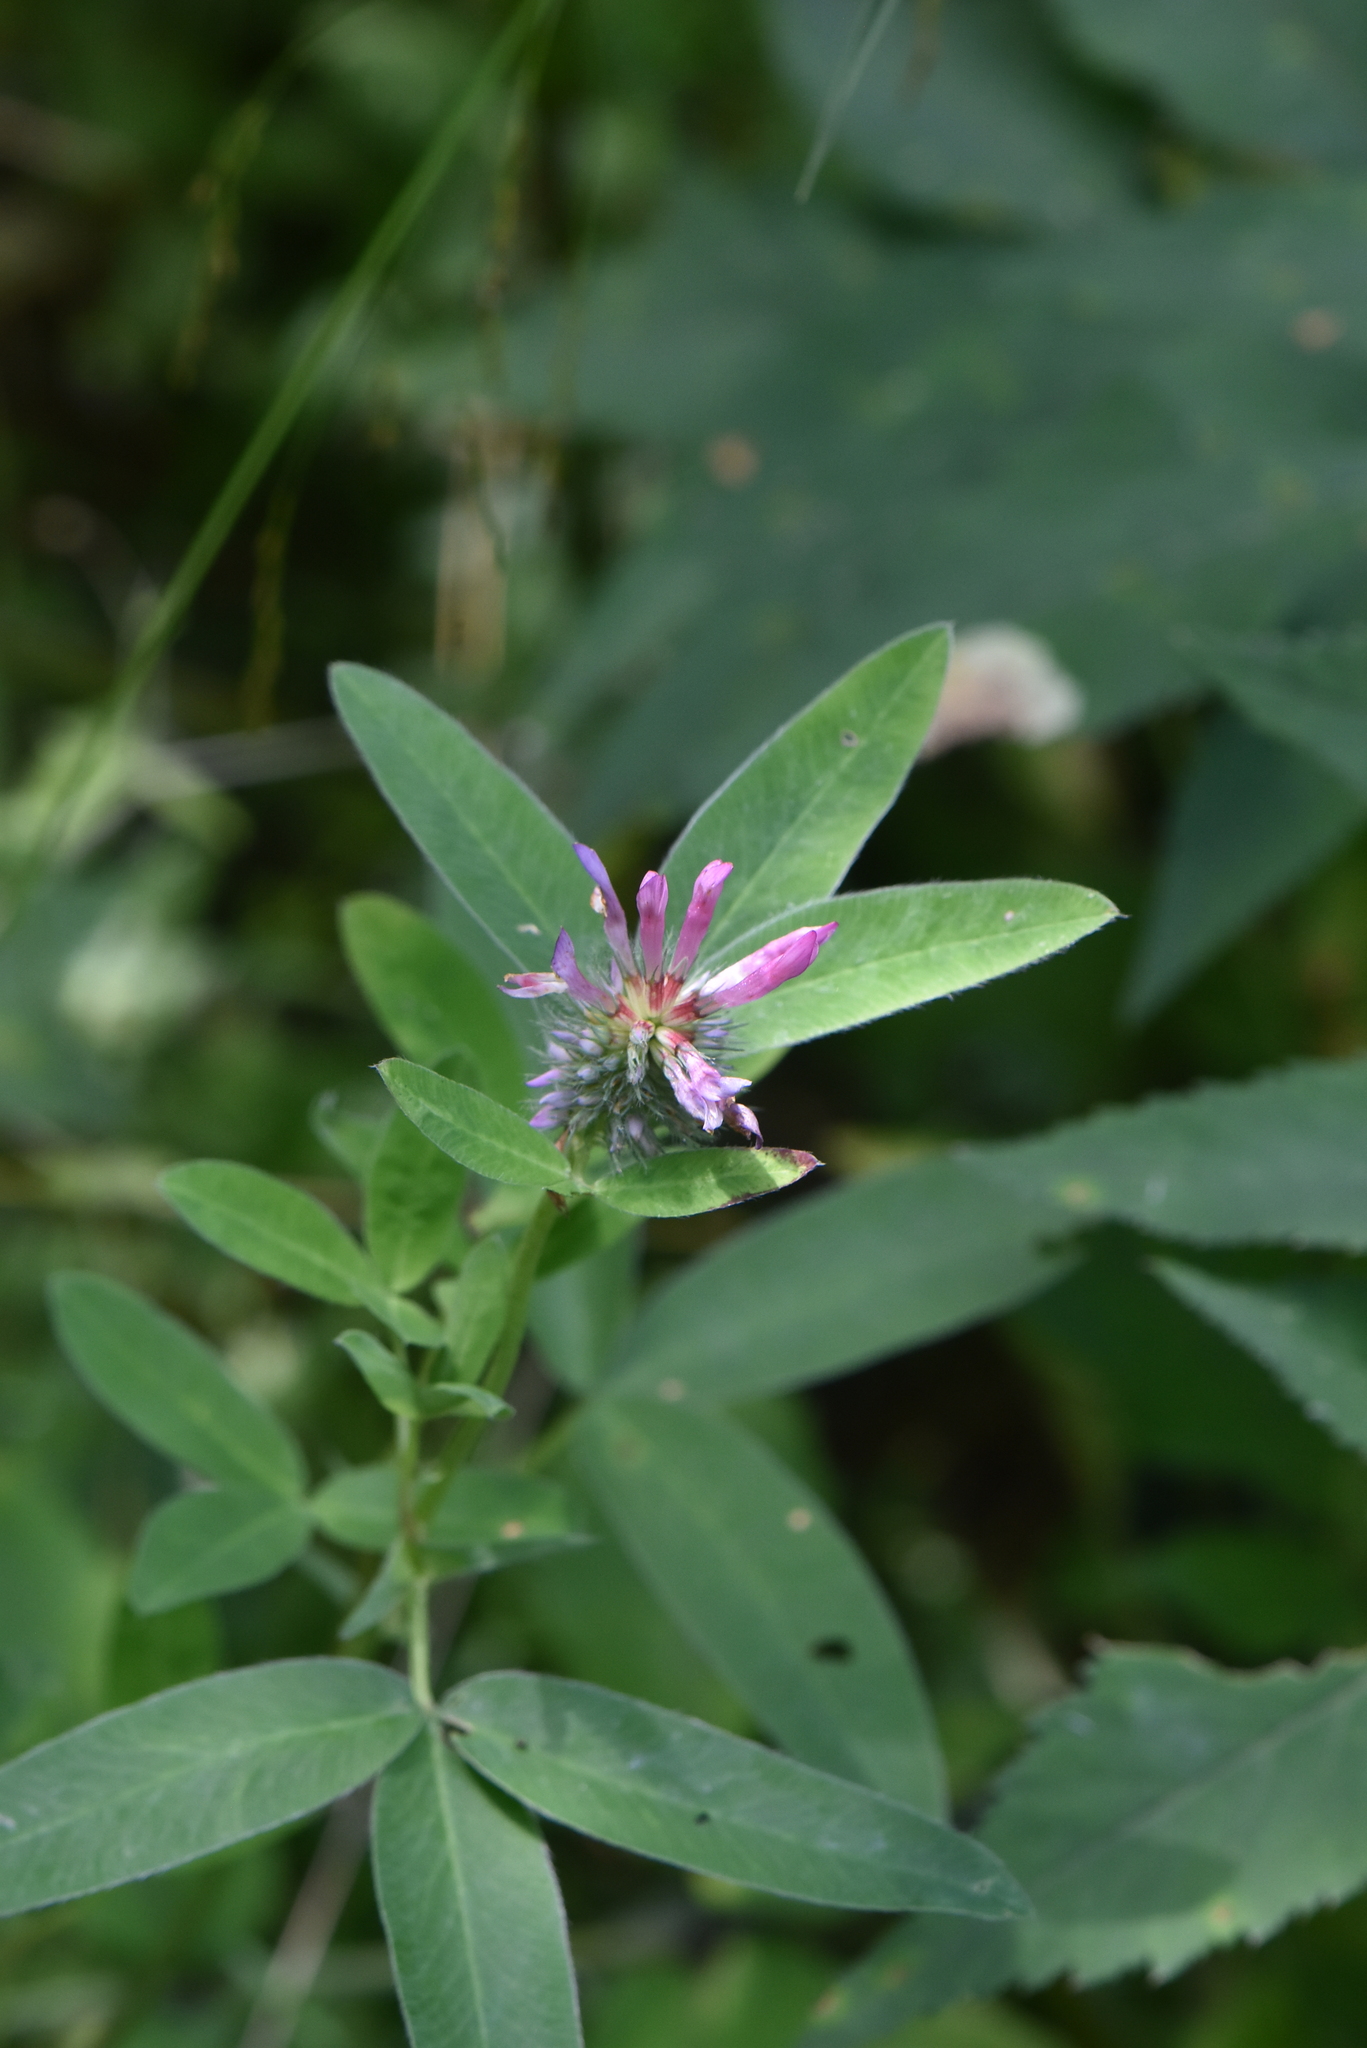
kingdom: Plantae
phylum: Tracheophyta
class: Magnoliopsida
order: Fabales
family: Fabaceae
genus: Trifolium
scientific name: Trifolium medium
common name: Zigzag clover
